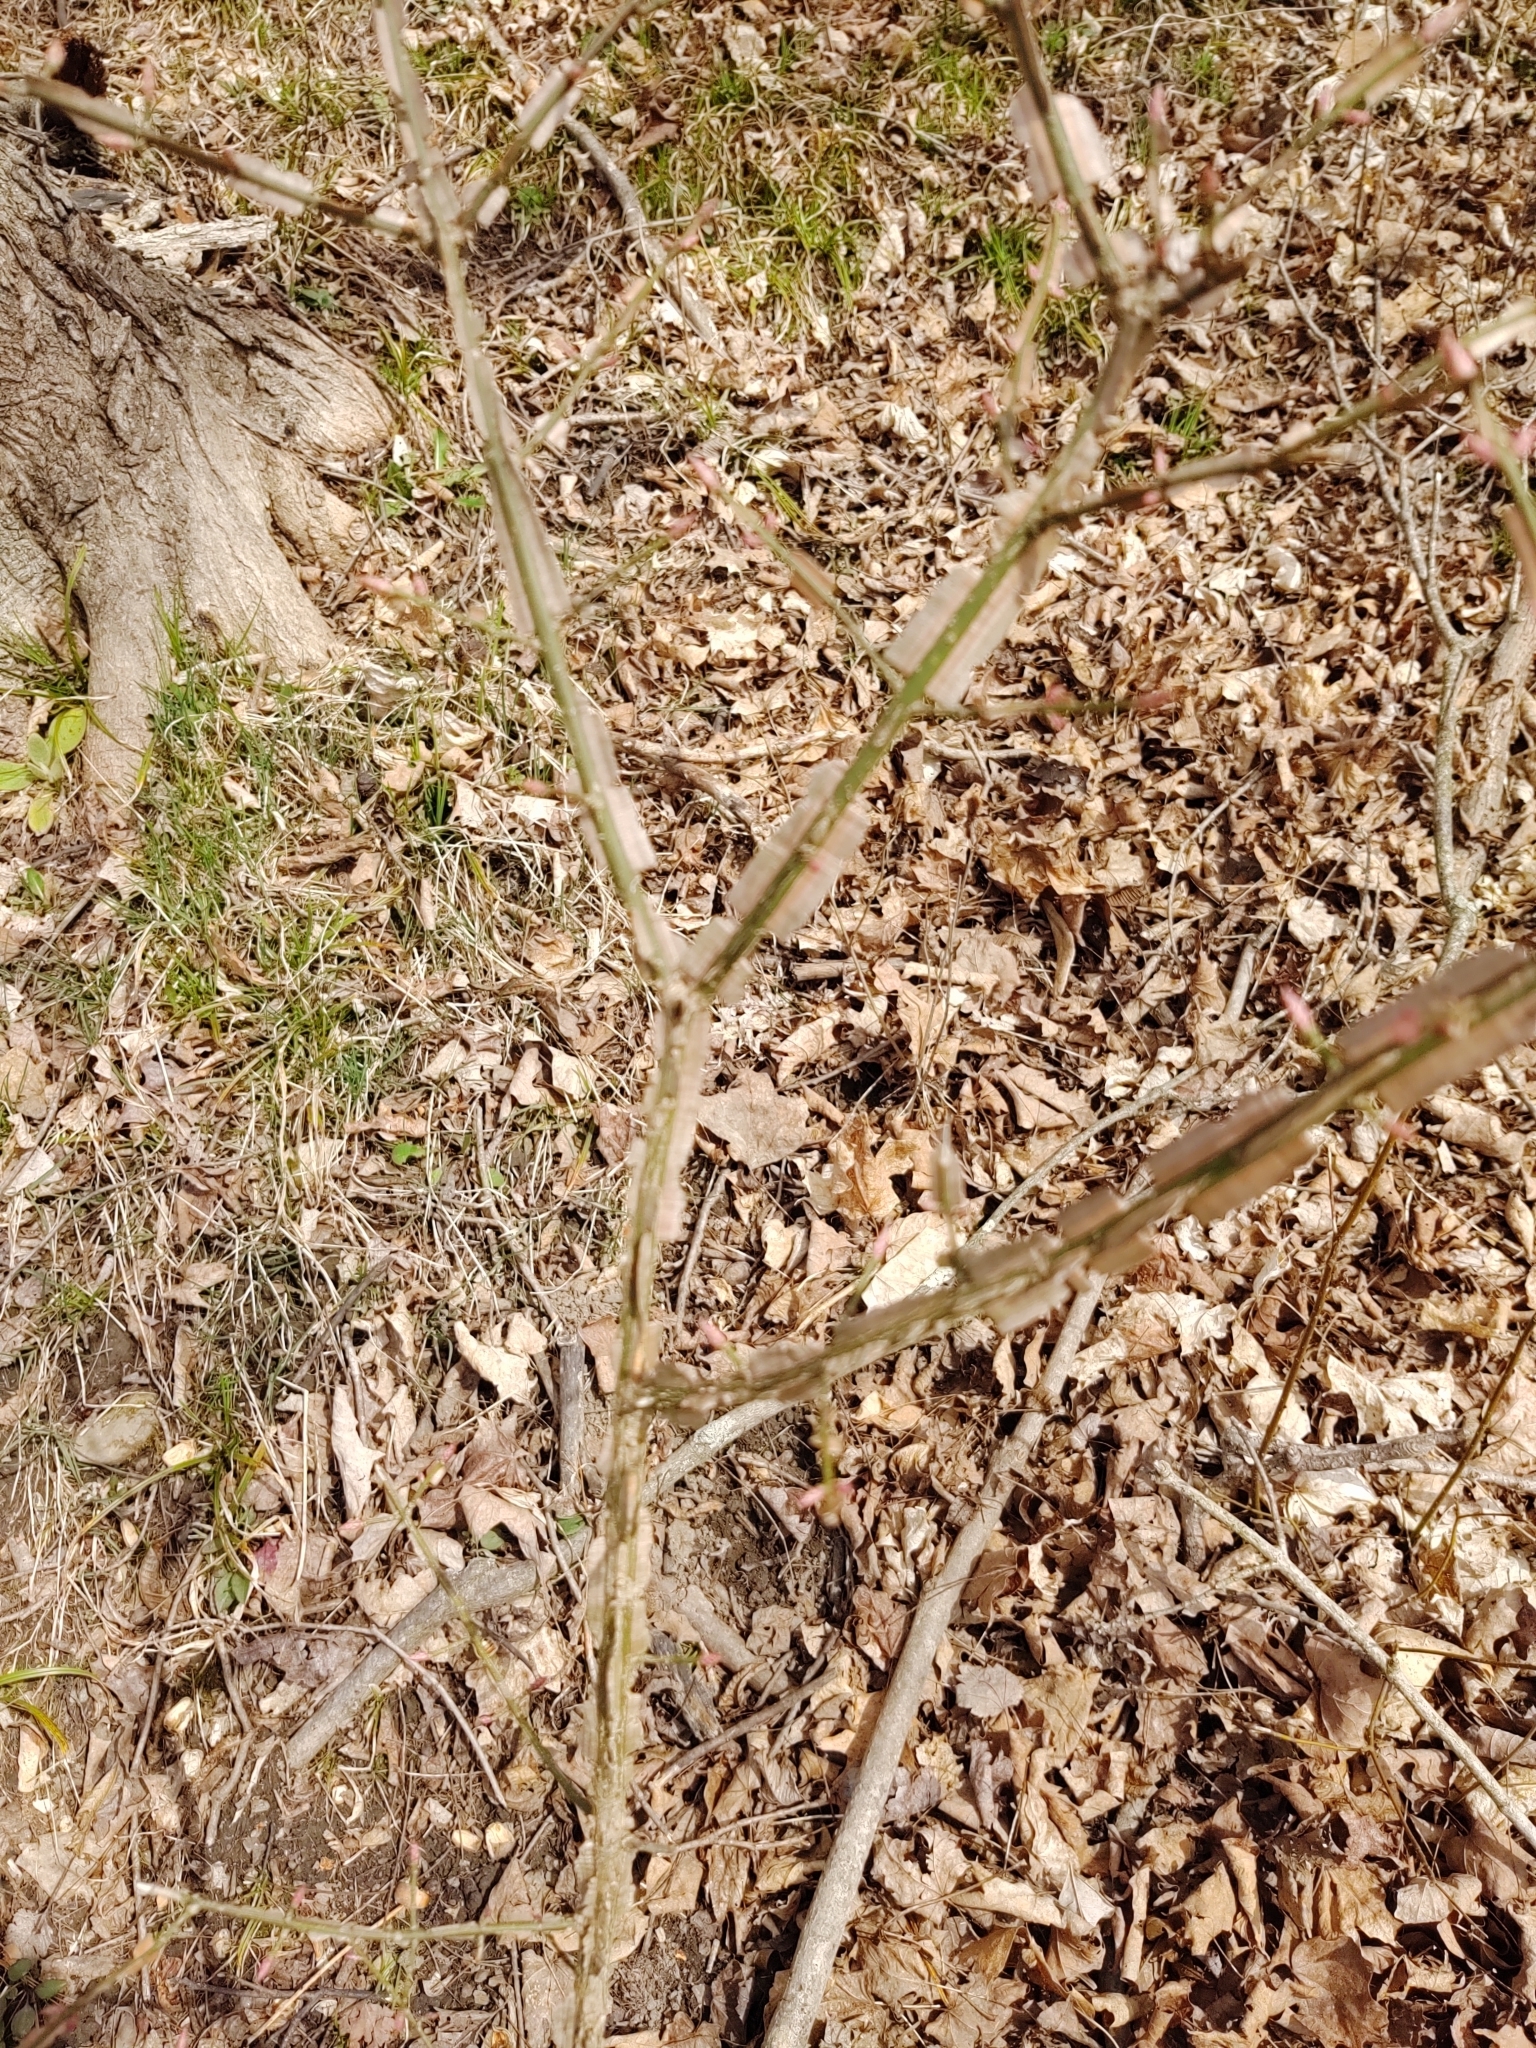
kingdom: Plantae
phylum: Tracheophyta
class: Magnoliopsida
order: Celastrales
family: Celastraceae
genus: Euonymus
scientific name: Euonymus alatus
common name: Winged euonymus
